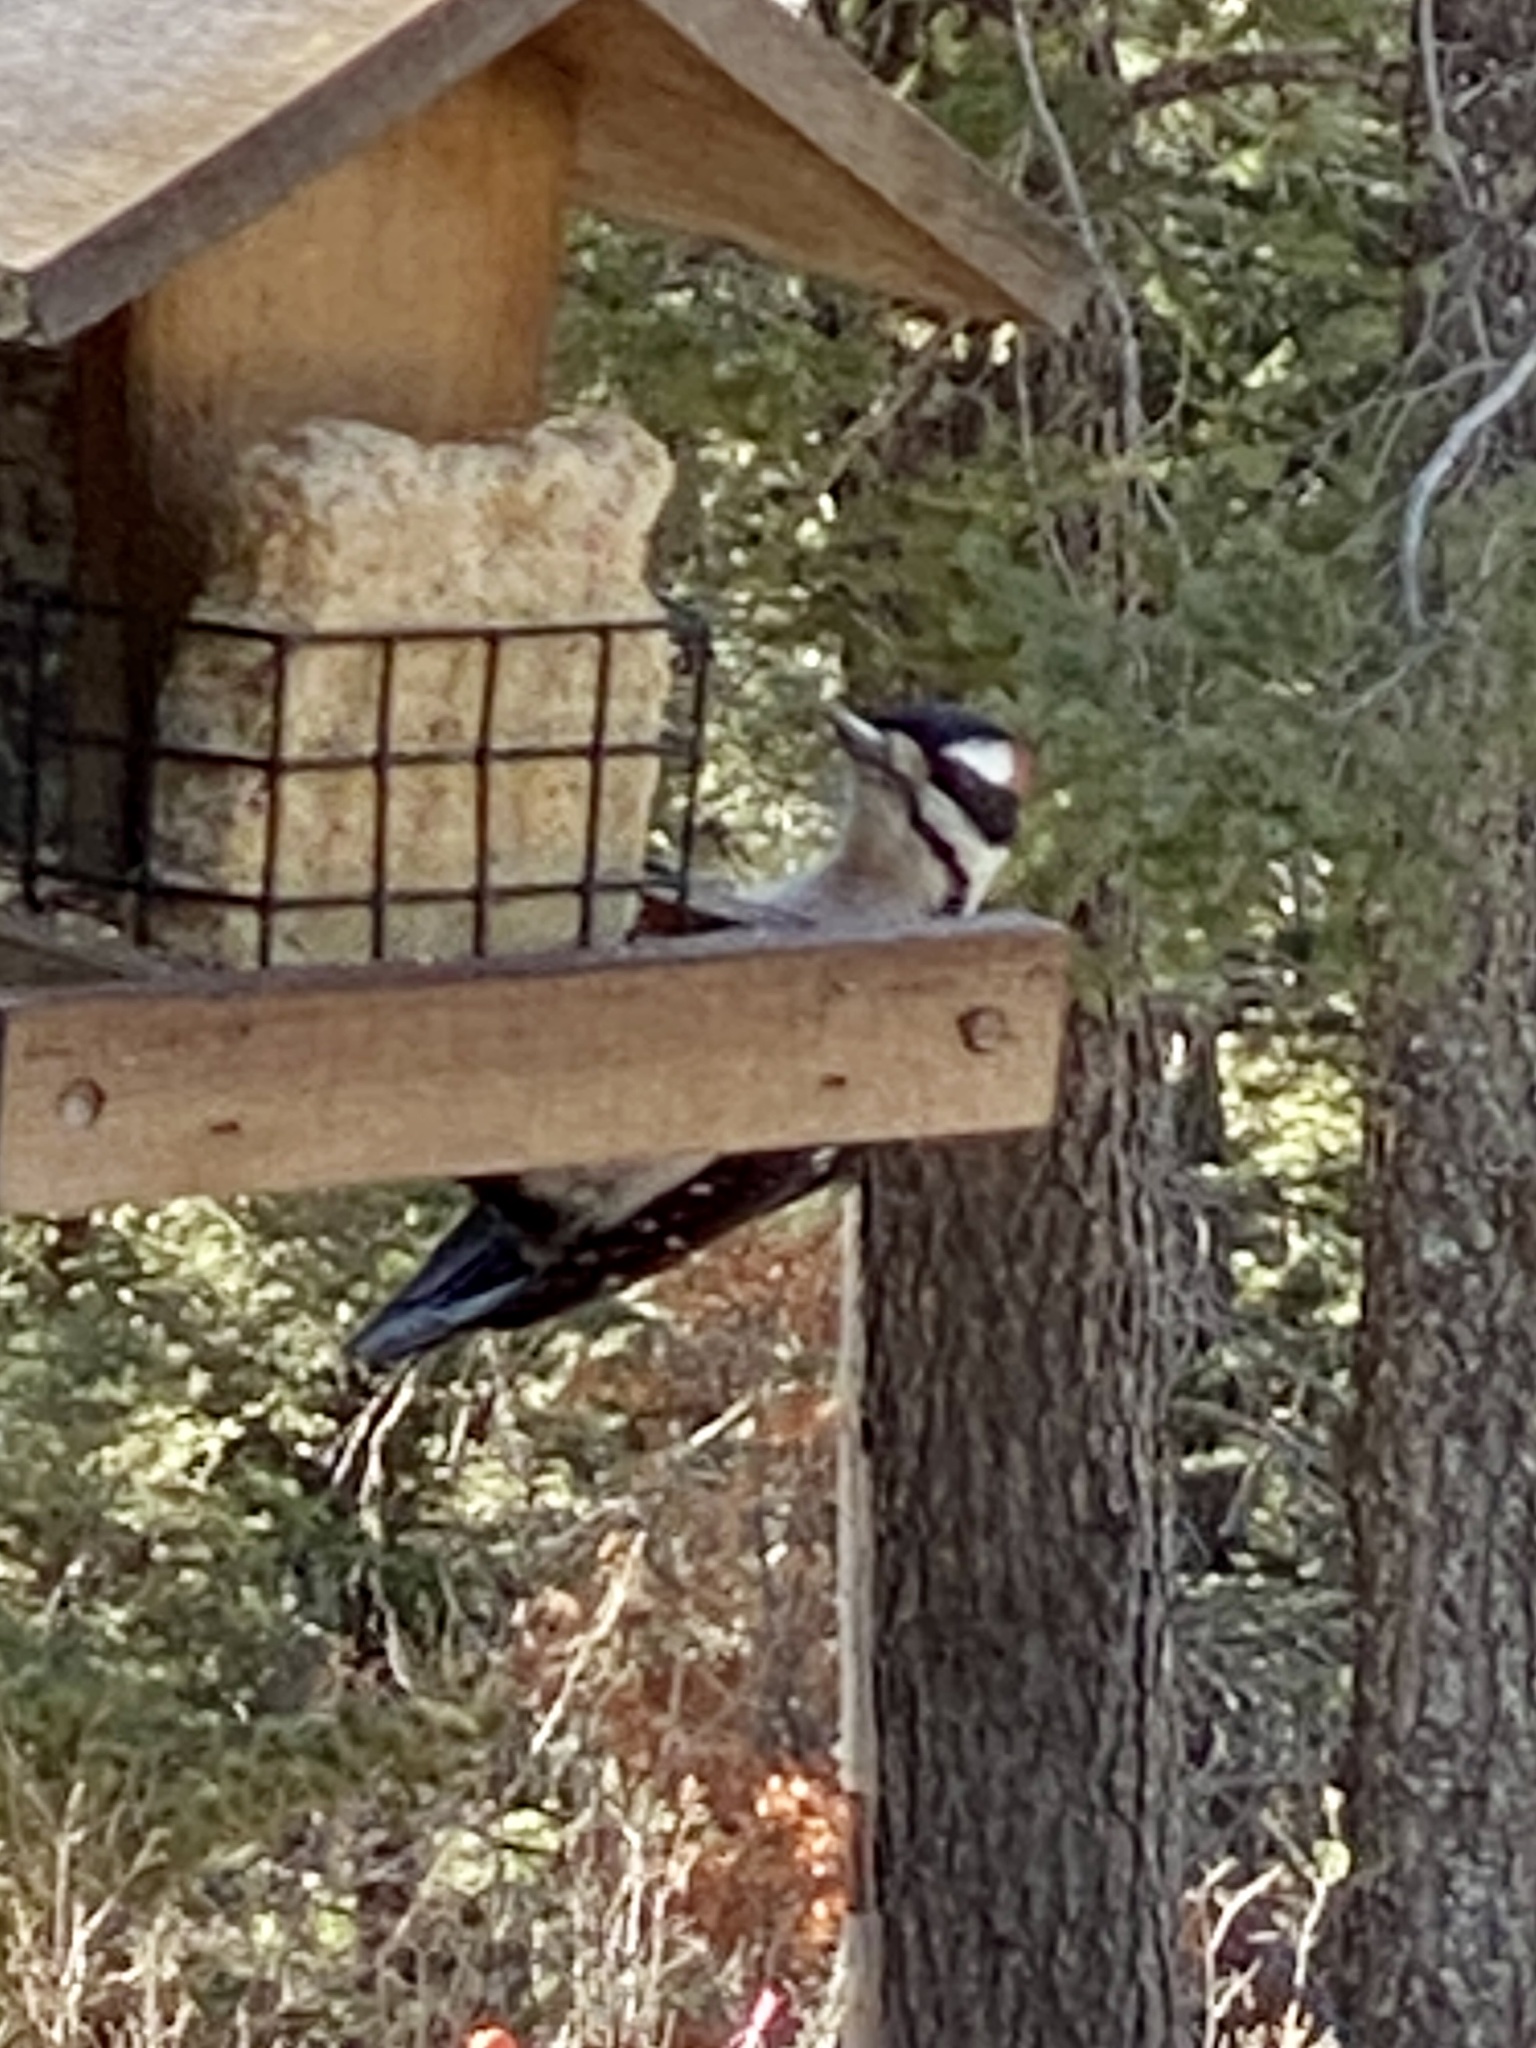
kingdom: Animalia
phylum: Chordata
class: Aves
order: Piciformes
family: Picidae
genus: Leuconotopicus
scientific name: Leuconotopicus villosus
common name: Hairy woodpecker
